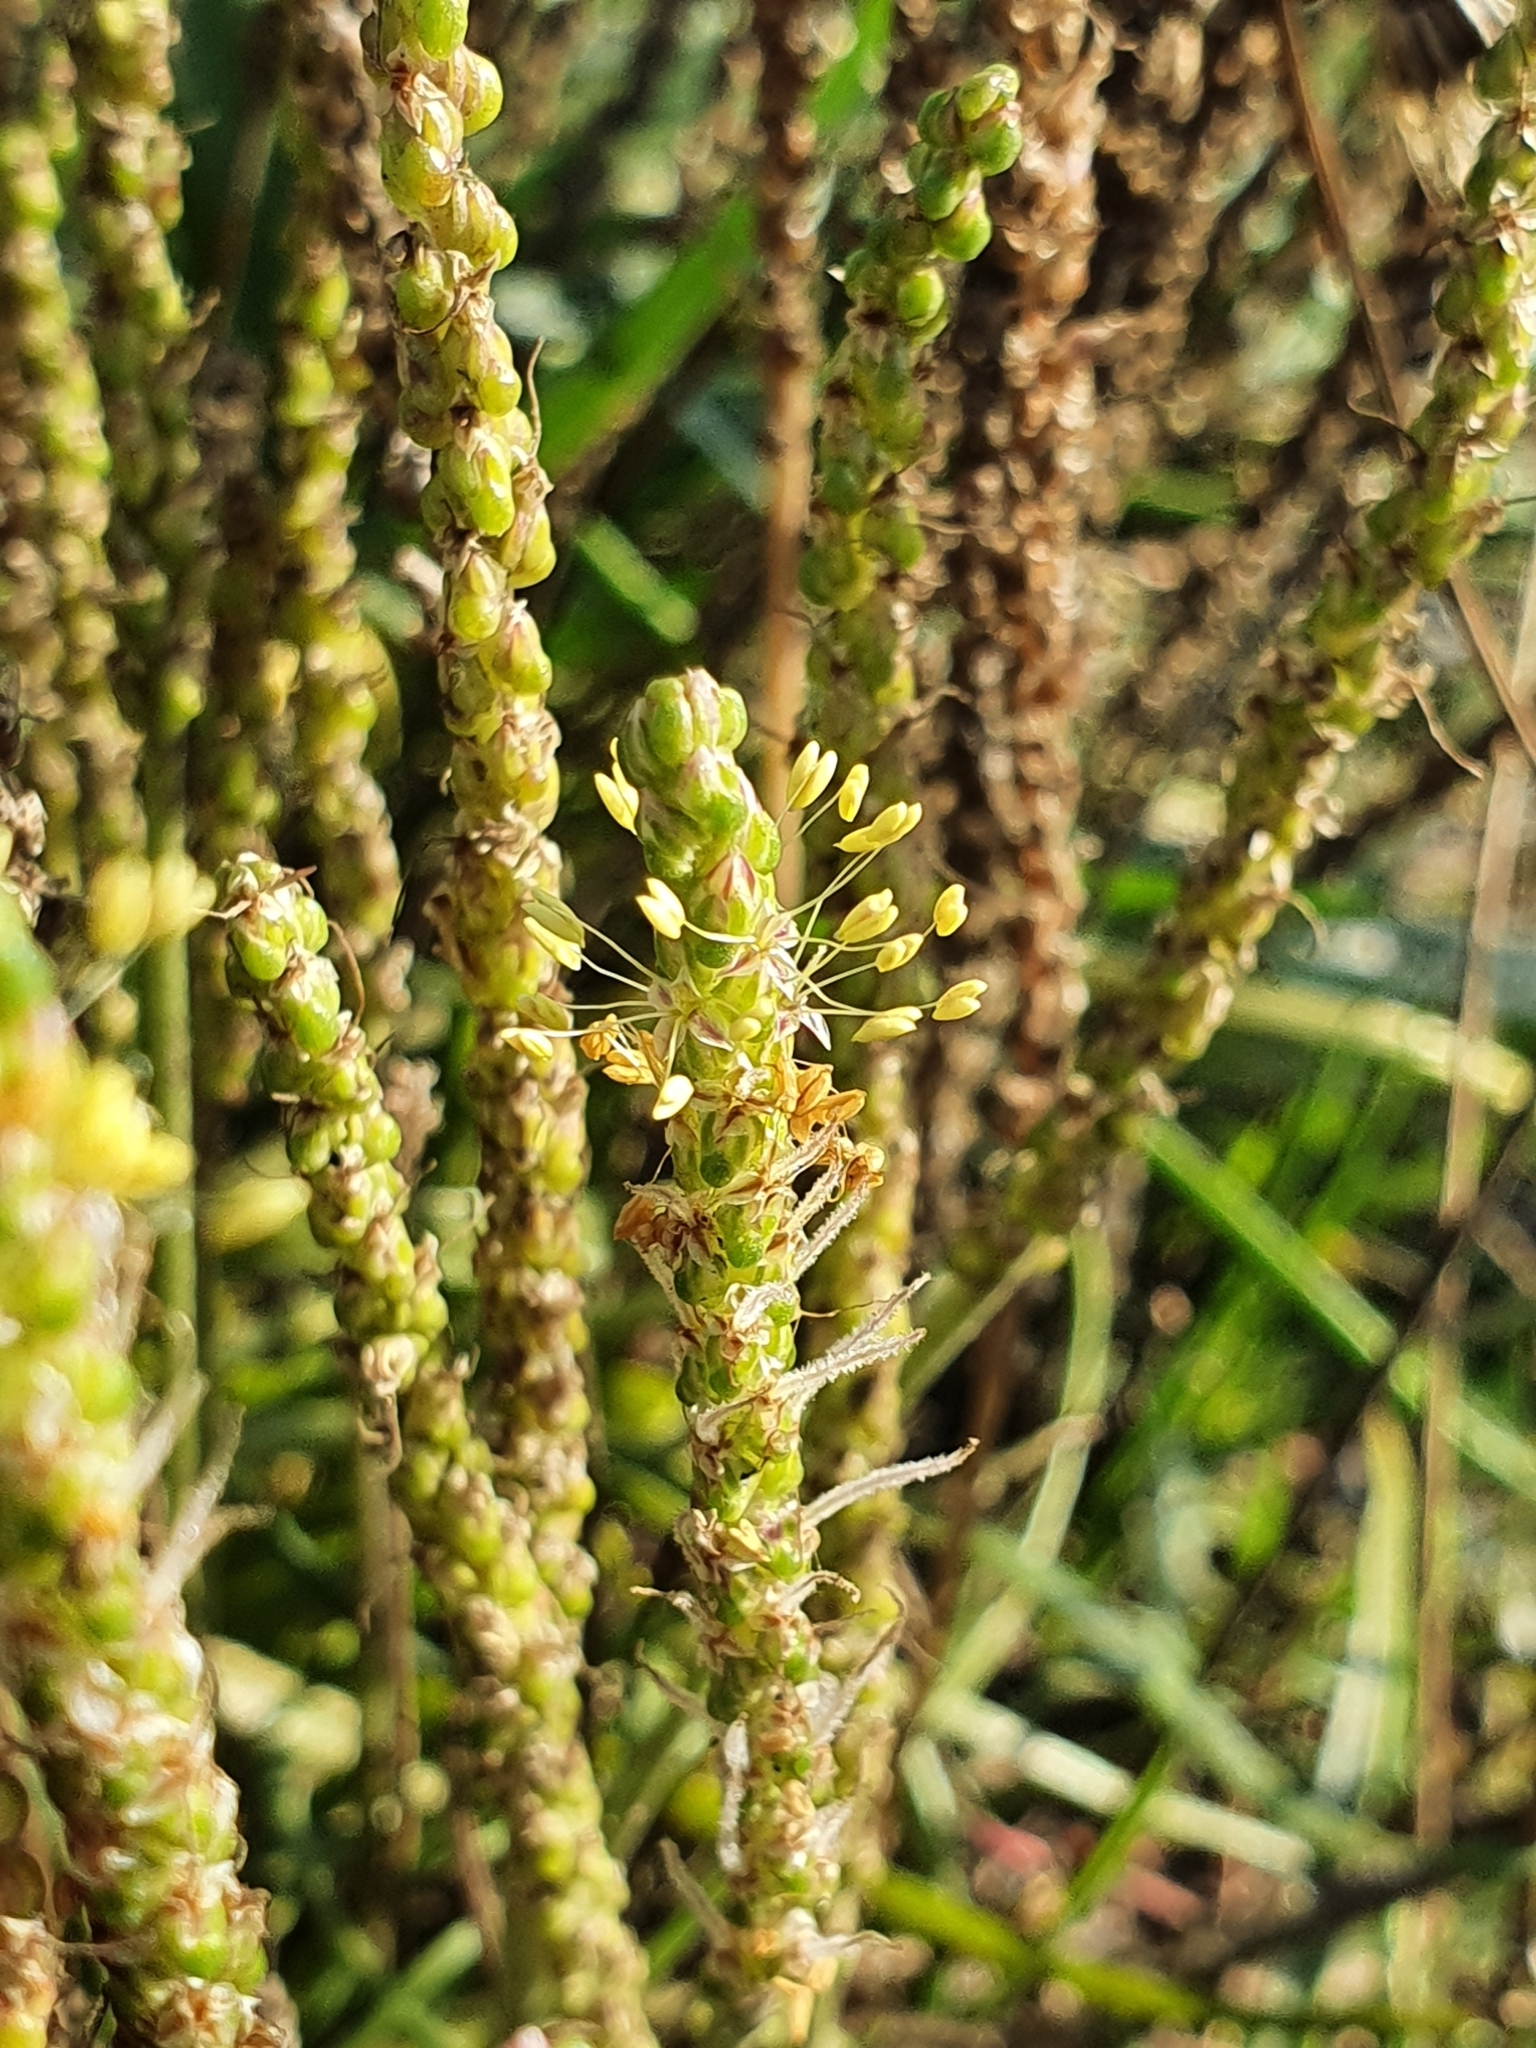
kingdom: Plantae
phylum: Tracheophyta
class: Magnoliopsida
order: Lamiales
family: Plantaginaceae
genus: Plantago
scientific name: Plantago maritima
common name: Sea plantain
